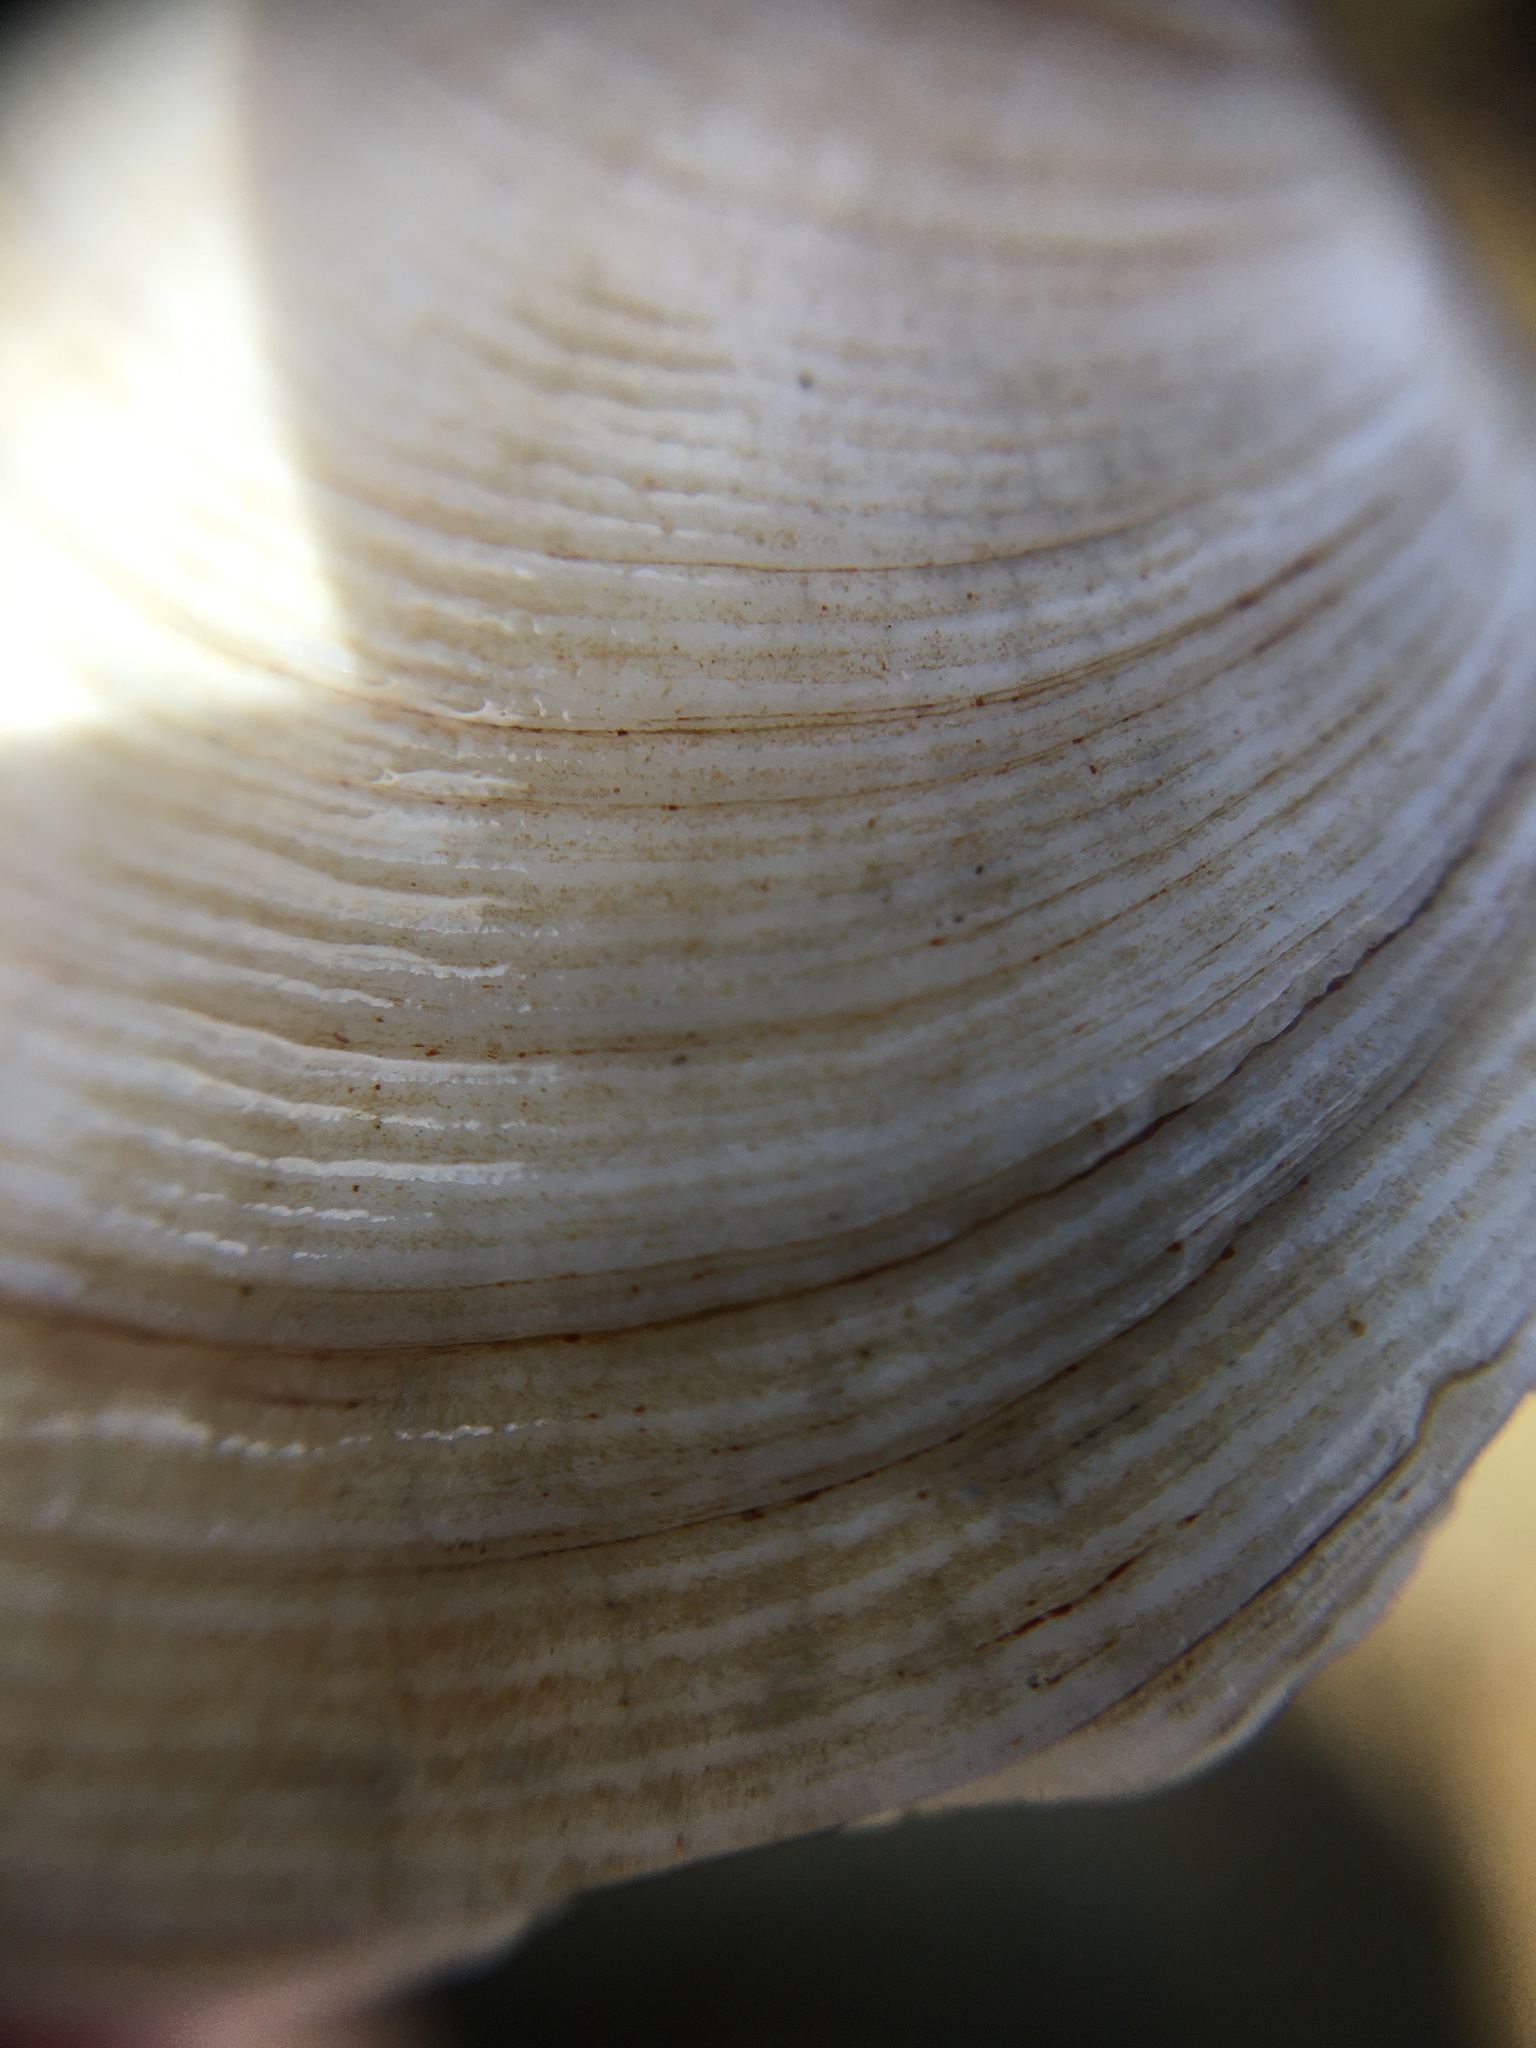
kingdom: Animalia
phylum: Mollusca
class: Bivalvia
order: Lucinida
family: Lucinidae
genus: Epilucina
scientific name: Epilucina californica
